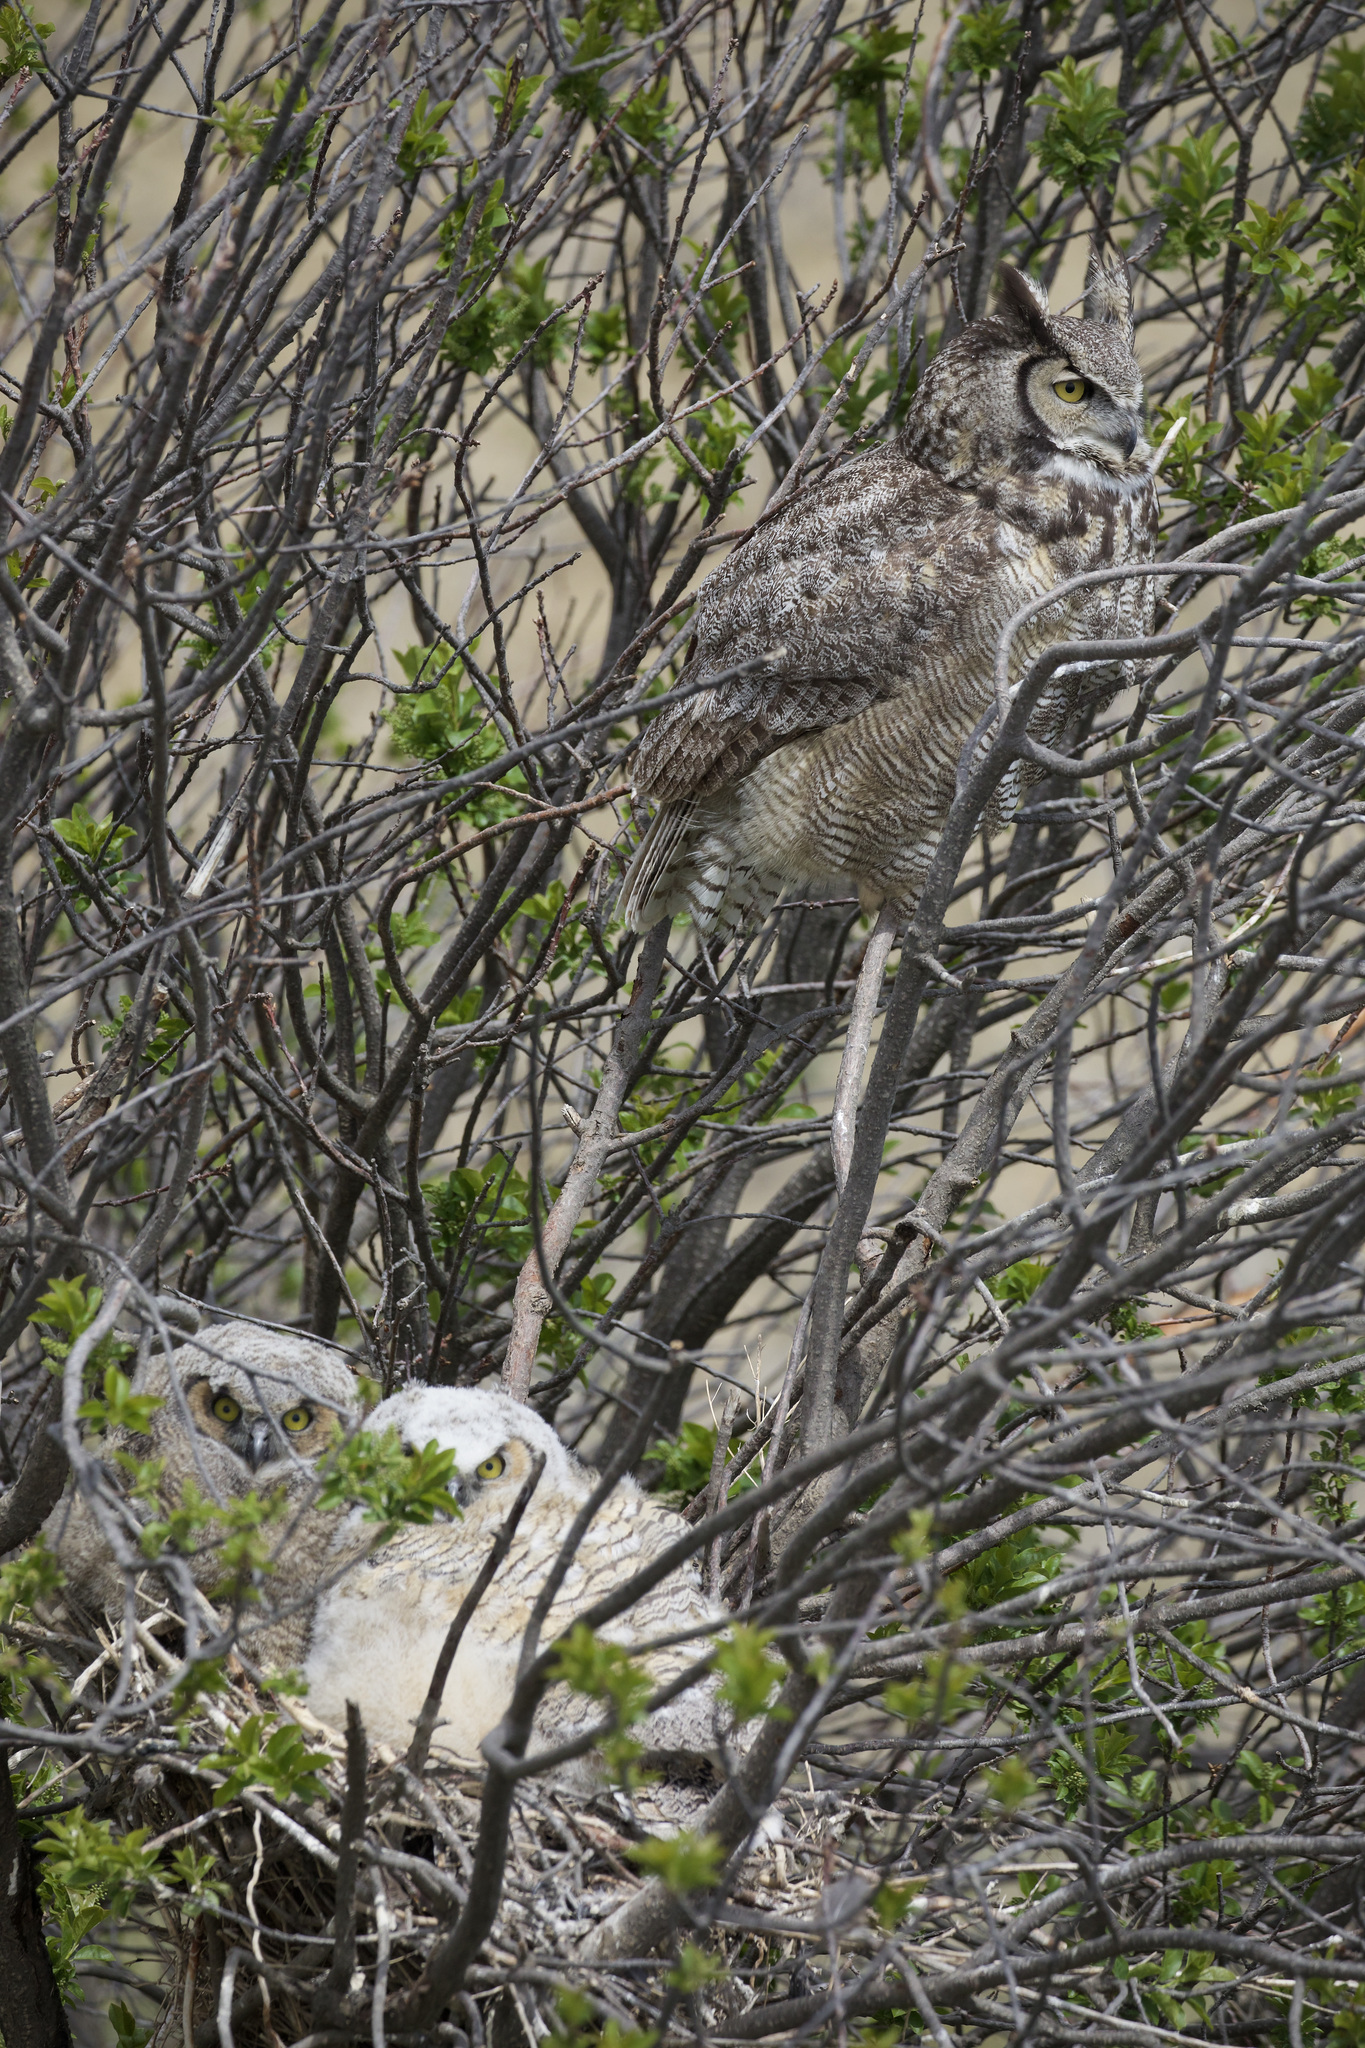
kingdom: Animalia
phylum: Chordata
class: Aves
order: Strigiformes
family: Strigidae
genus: Bubo
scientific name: Bubo virginianus
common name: Great horned owl
